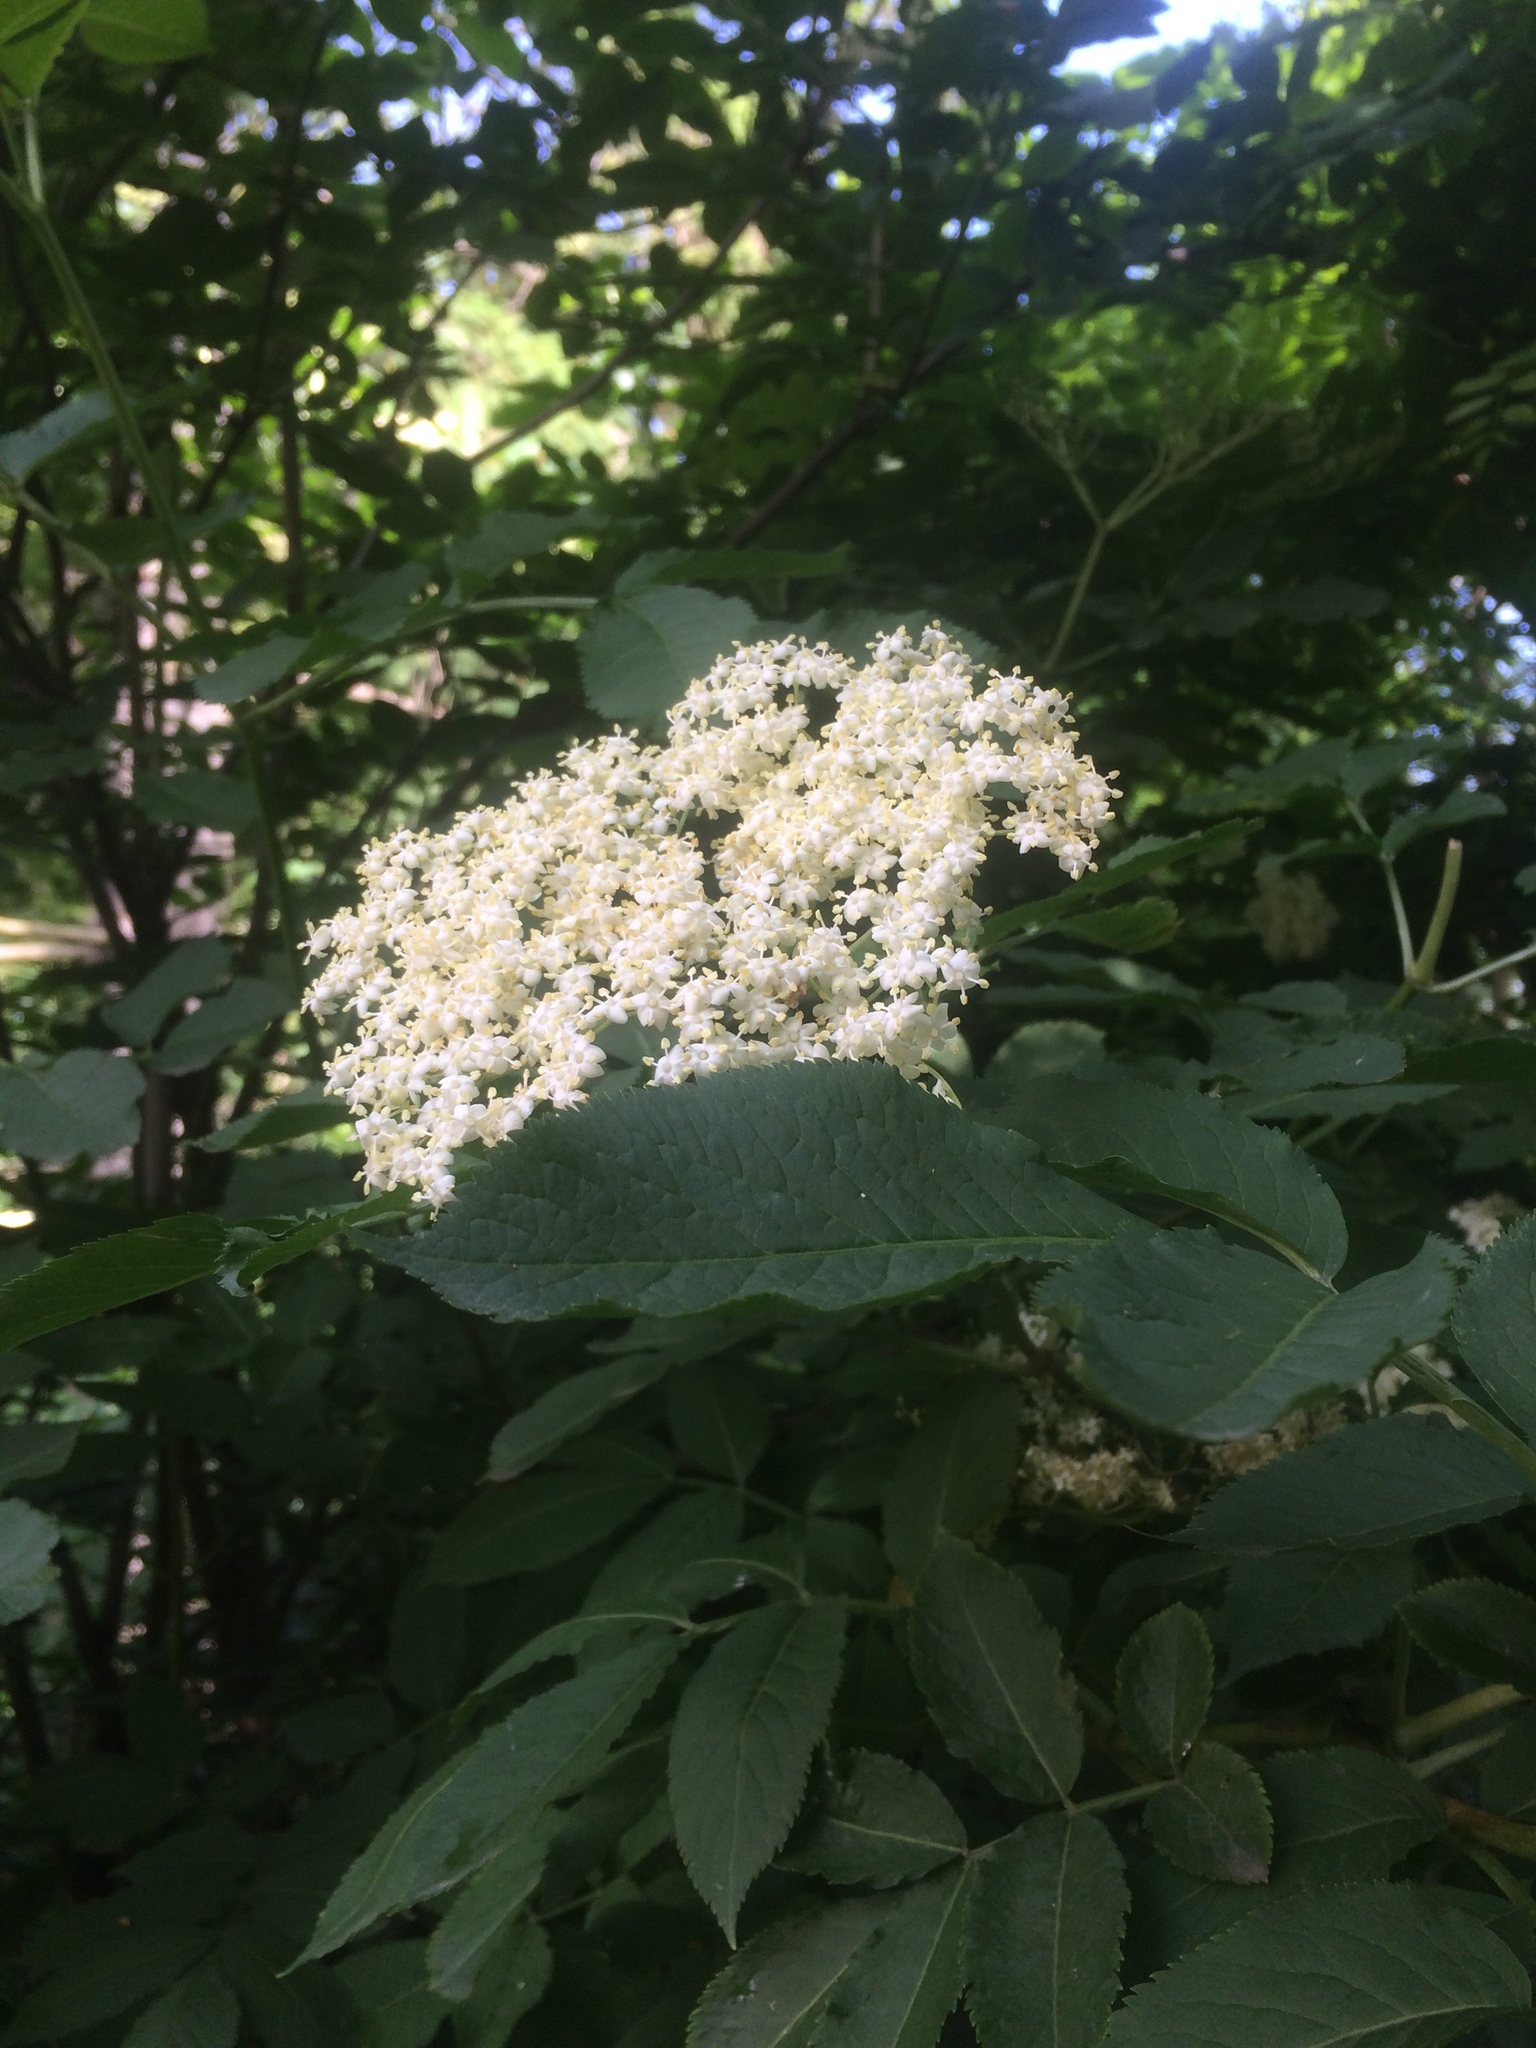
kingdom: Plantae
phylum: Tracheophyta
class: Magnoliopsida
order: Dipsacales
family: Viburnaceae
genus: Sambucus
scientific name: Sambucus nigra
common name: Elder
